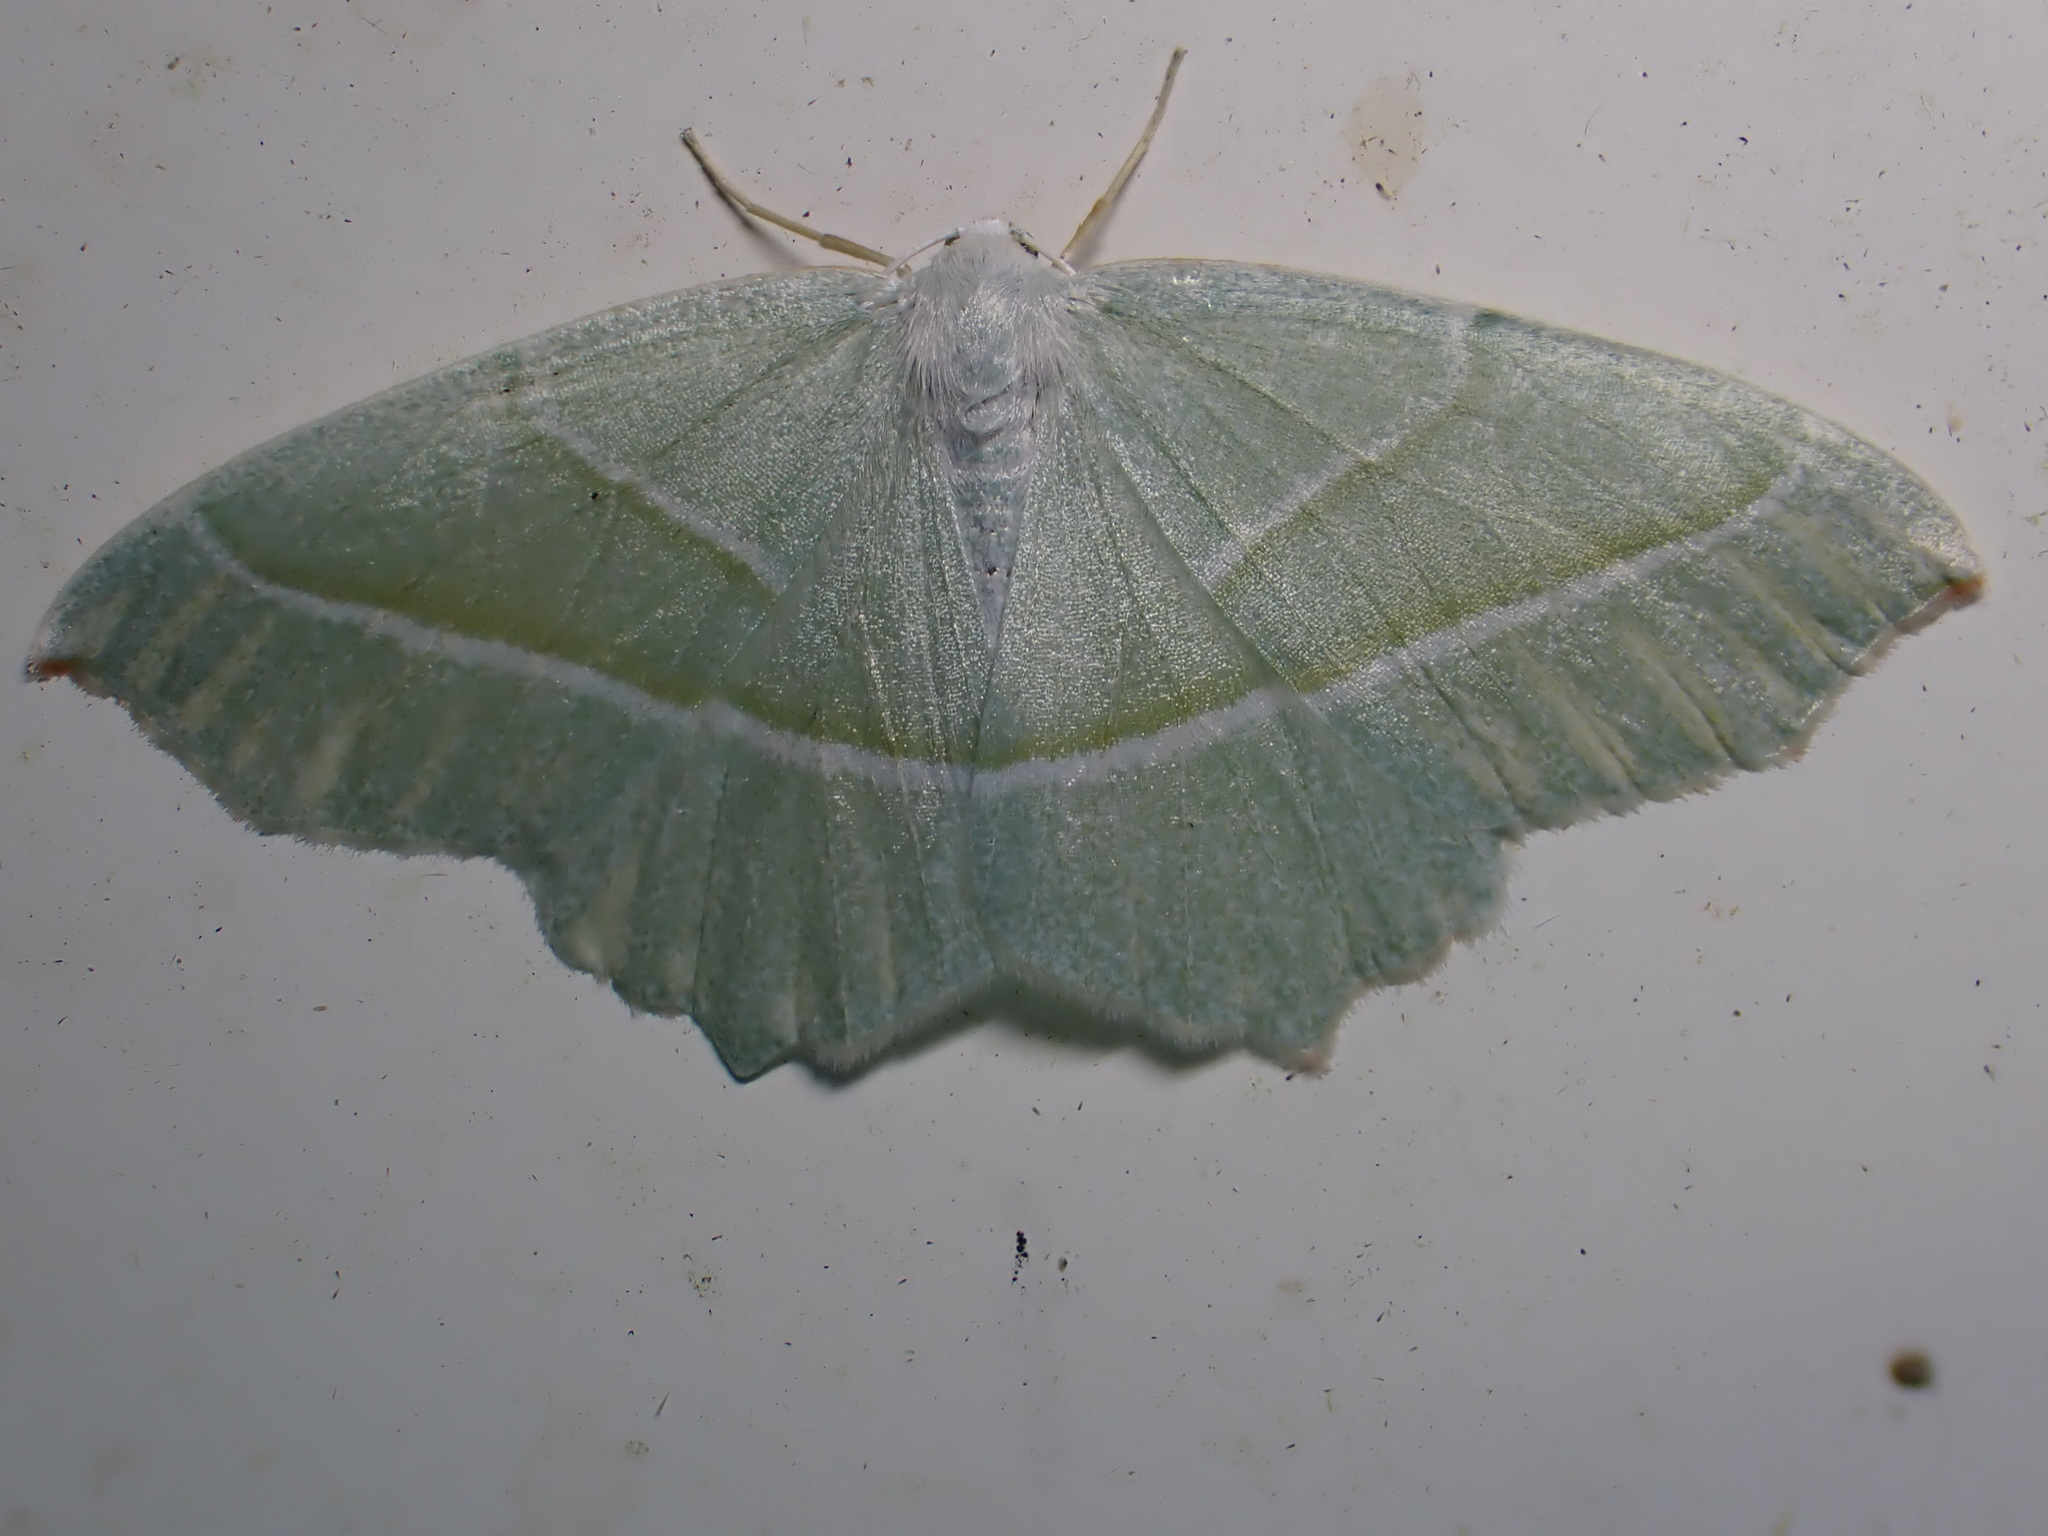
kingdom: Animalia
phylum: Arthropoda
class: Insecta
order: Lepidoptera
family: Geometridae
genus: Campaea
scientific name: Campaea margaritaria
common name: Light emerald
